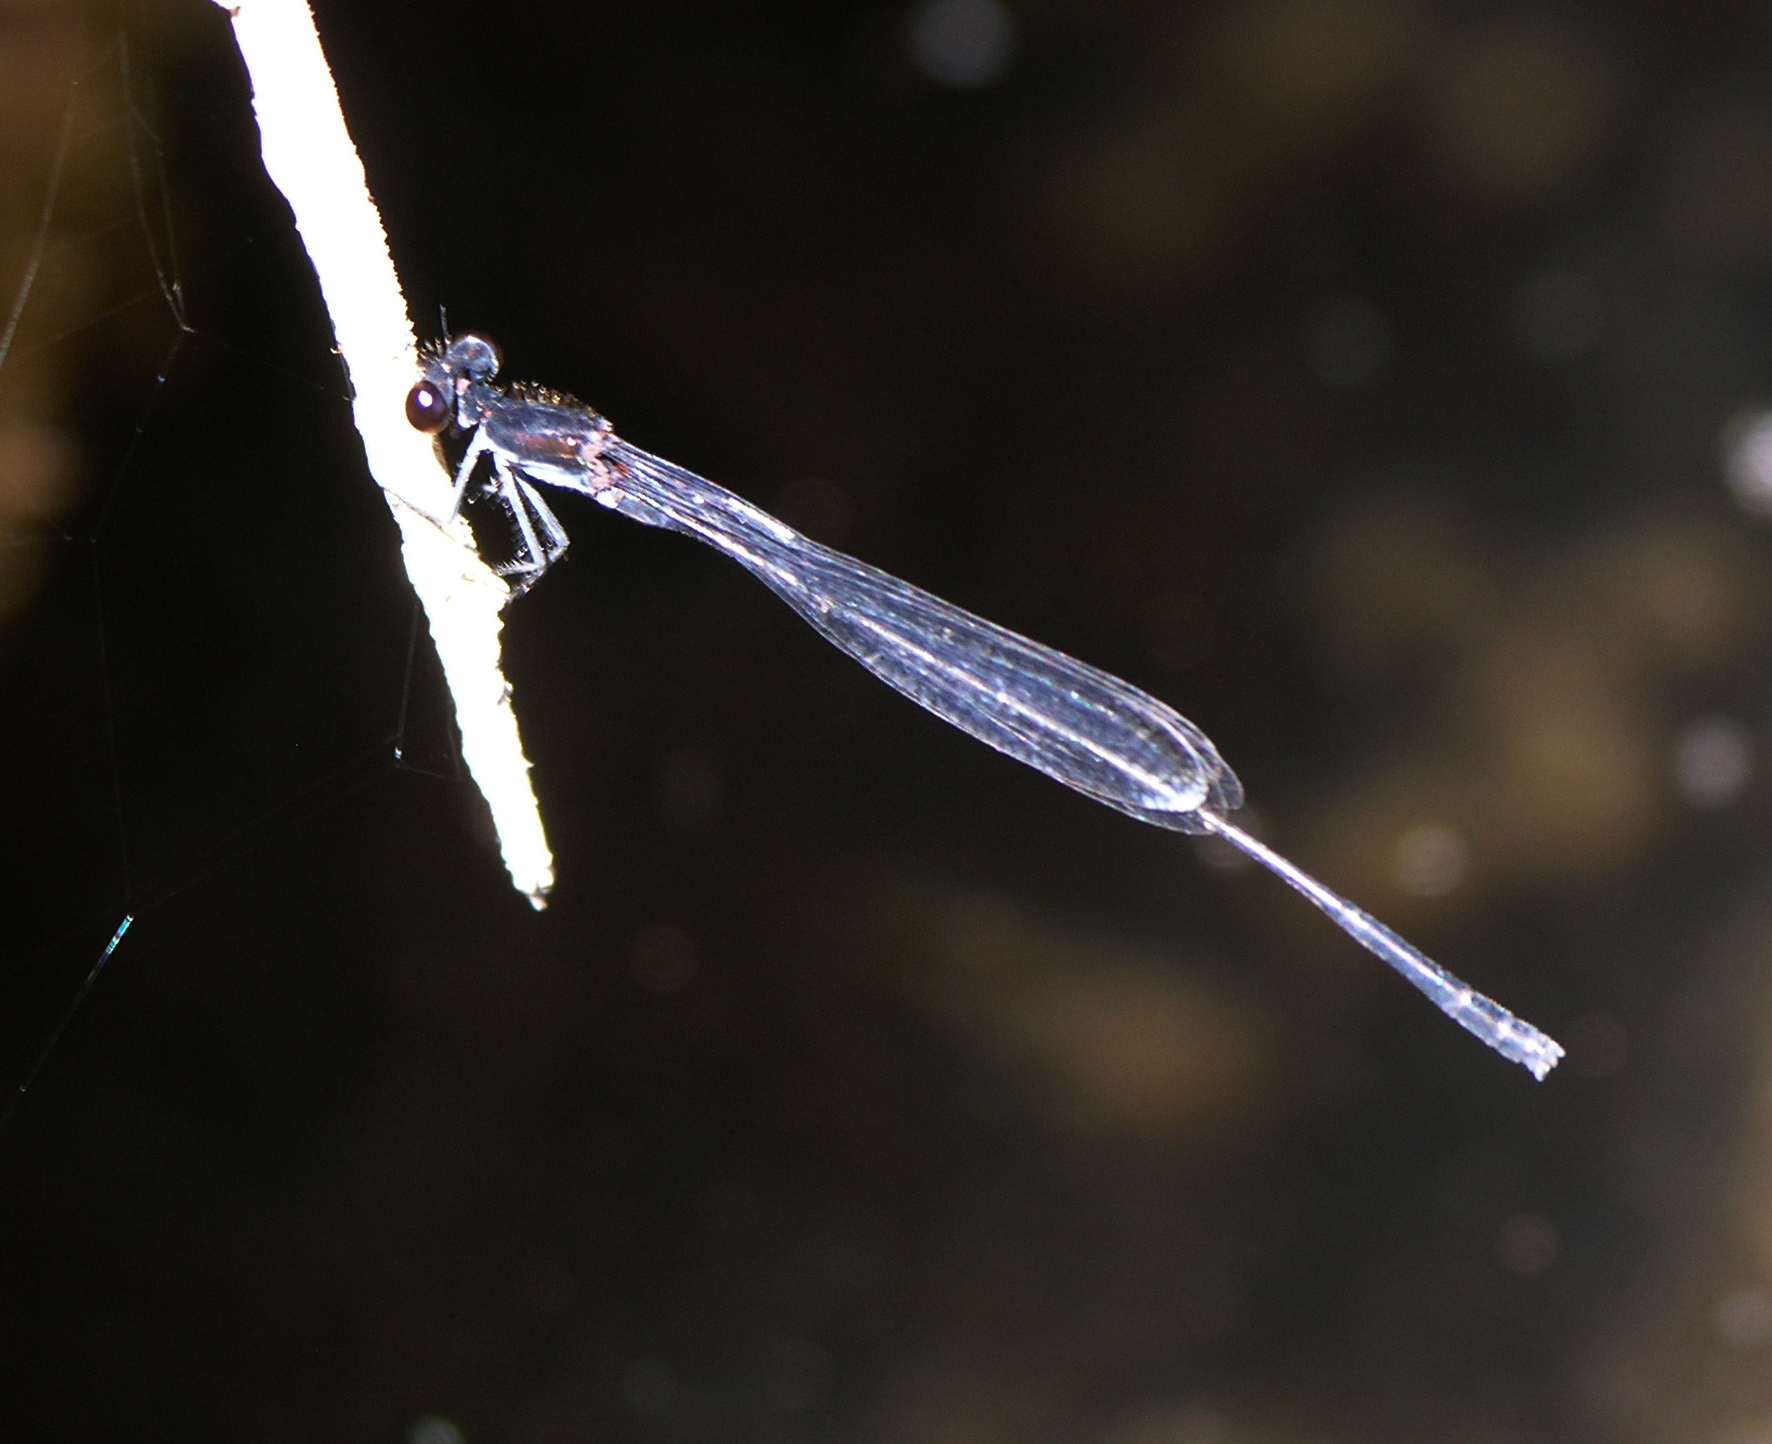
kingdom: Animalia
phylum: Arthropoda
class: Insecta
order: Odonata
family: Coenagrionidae
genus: Pseudagrion
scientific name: Pseudagrion pruinosum
